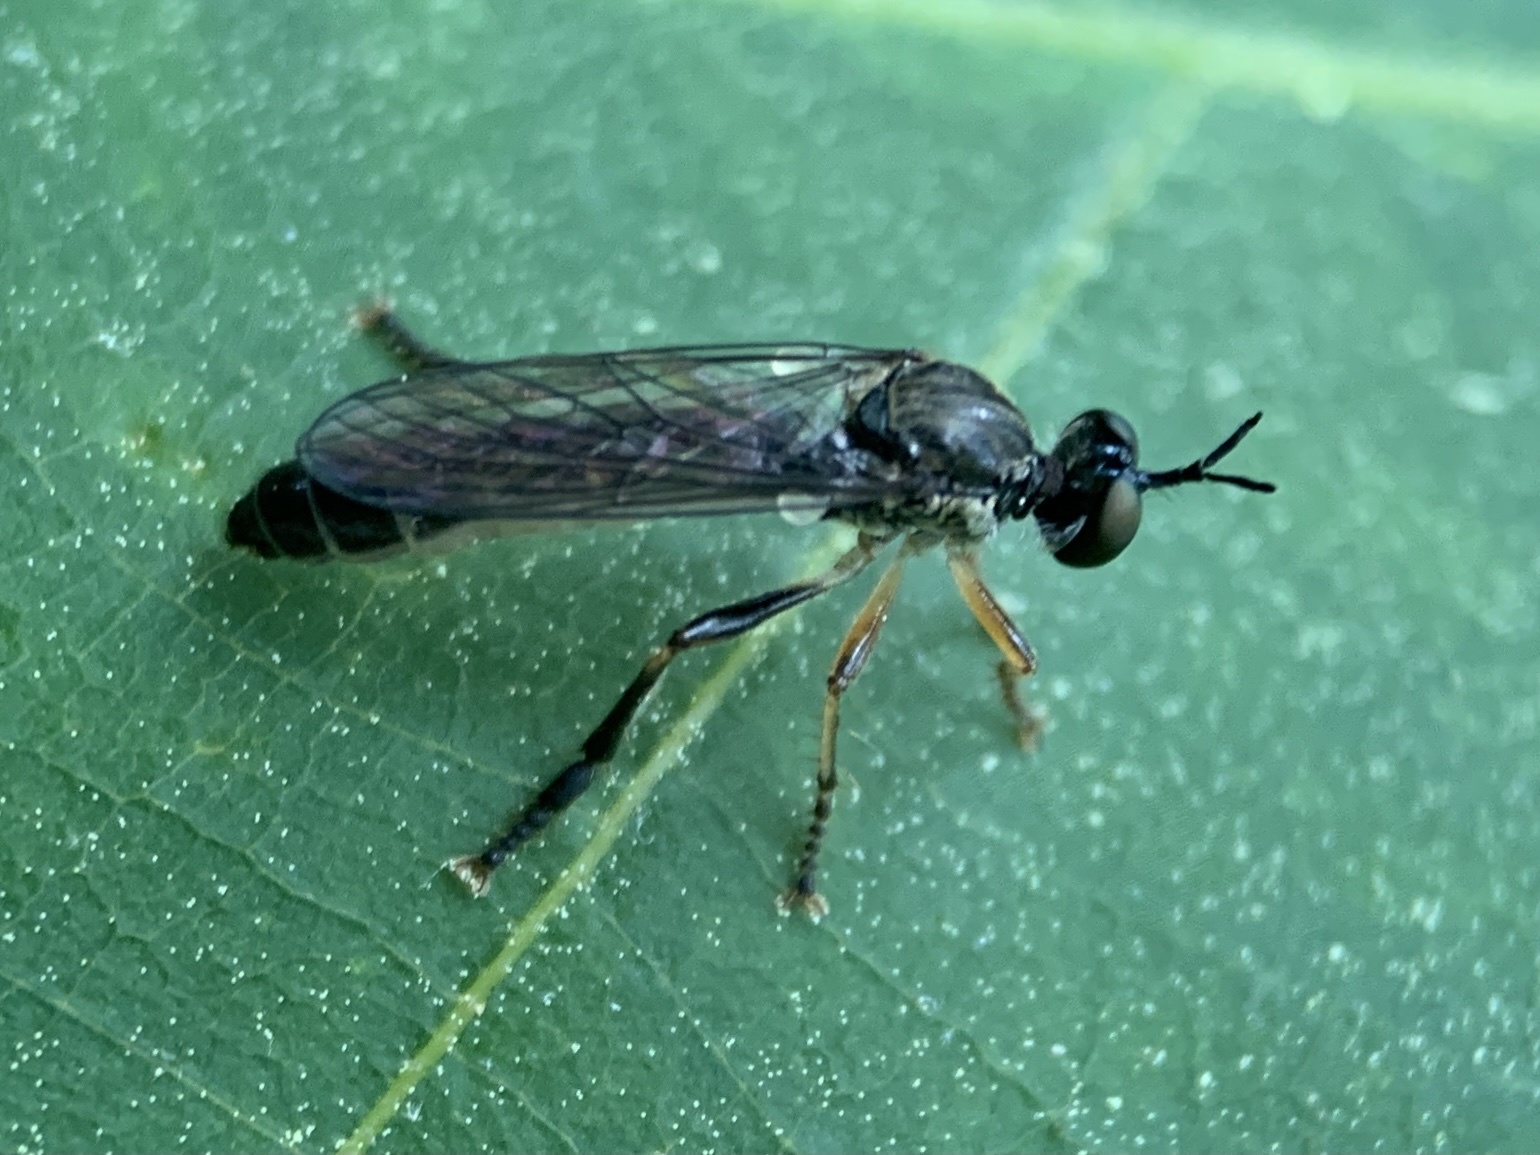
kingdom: Animalia
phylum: Arthropoda
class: Insecta
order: Diptera
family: Asilidae
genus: Dioctria
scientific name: Dioctria hyalipennis
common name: Stripe-legged robberfly
